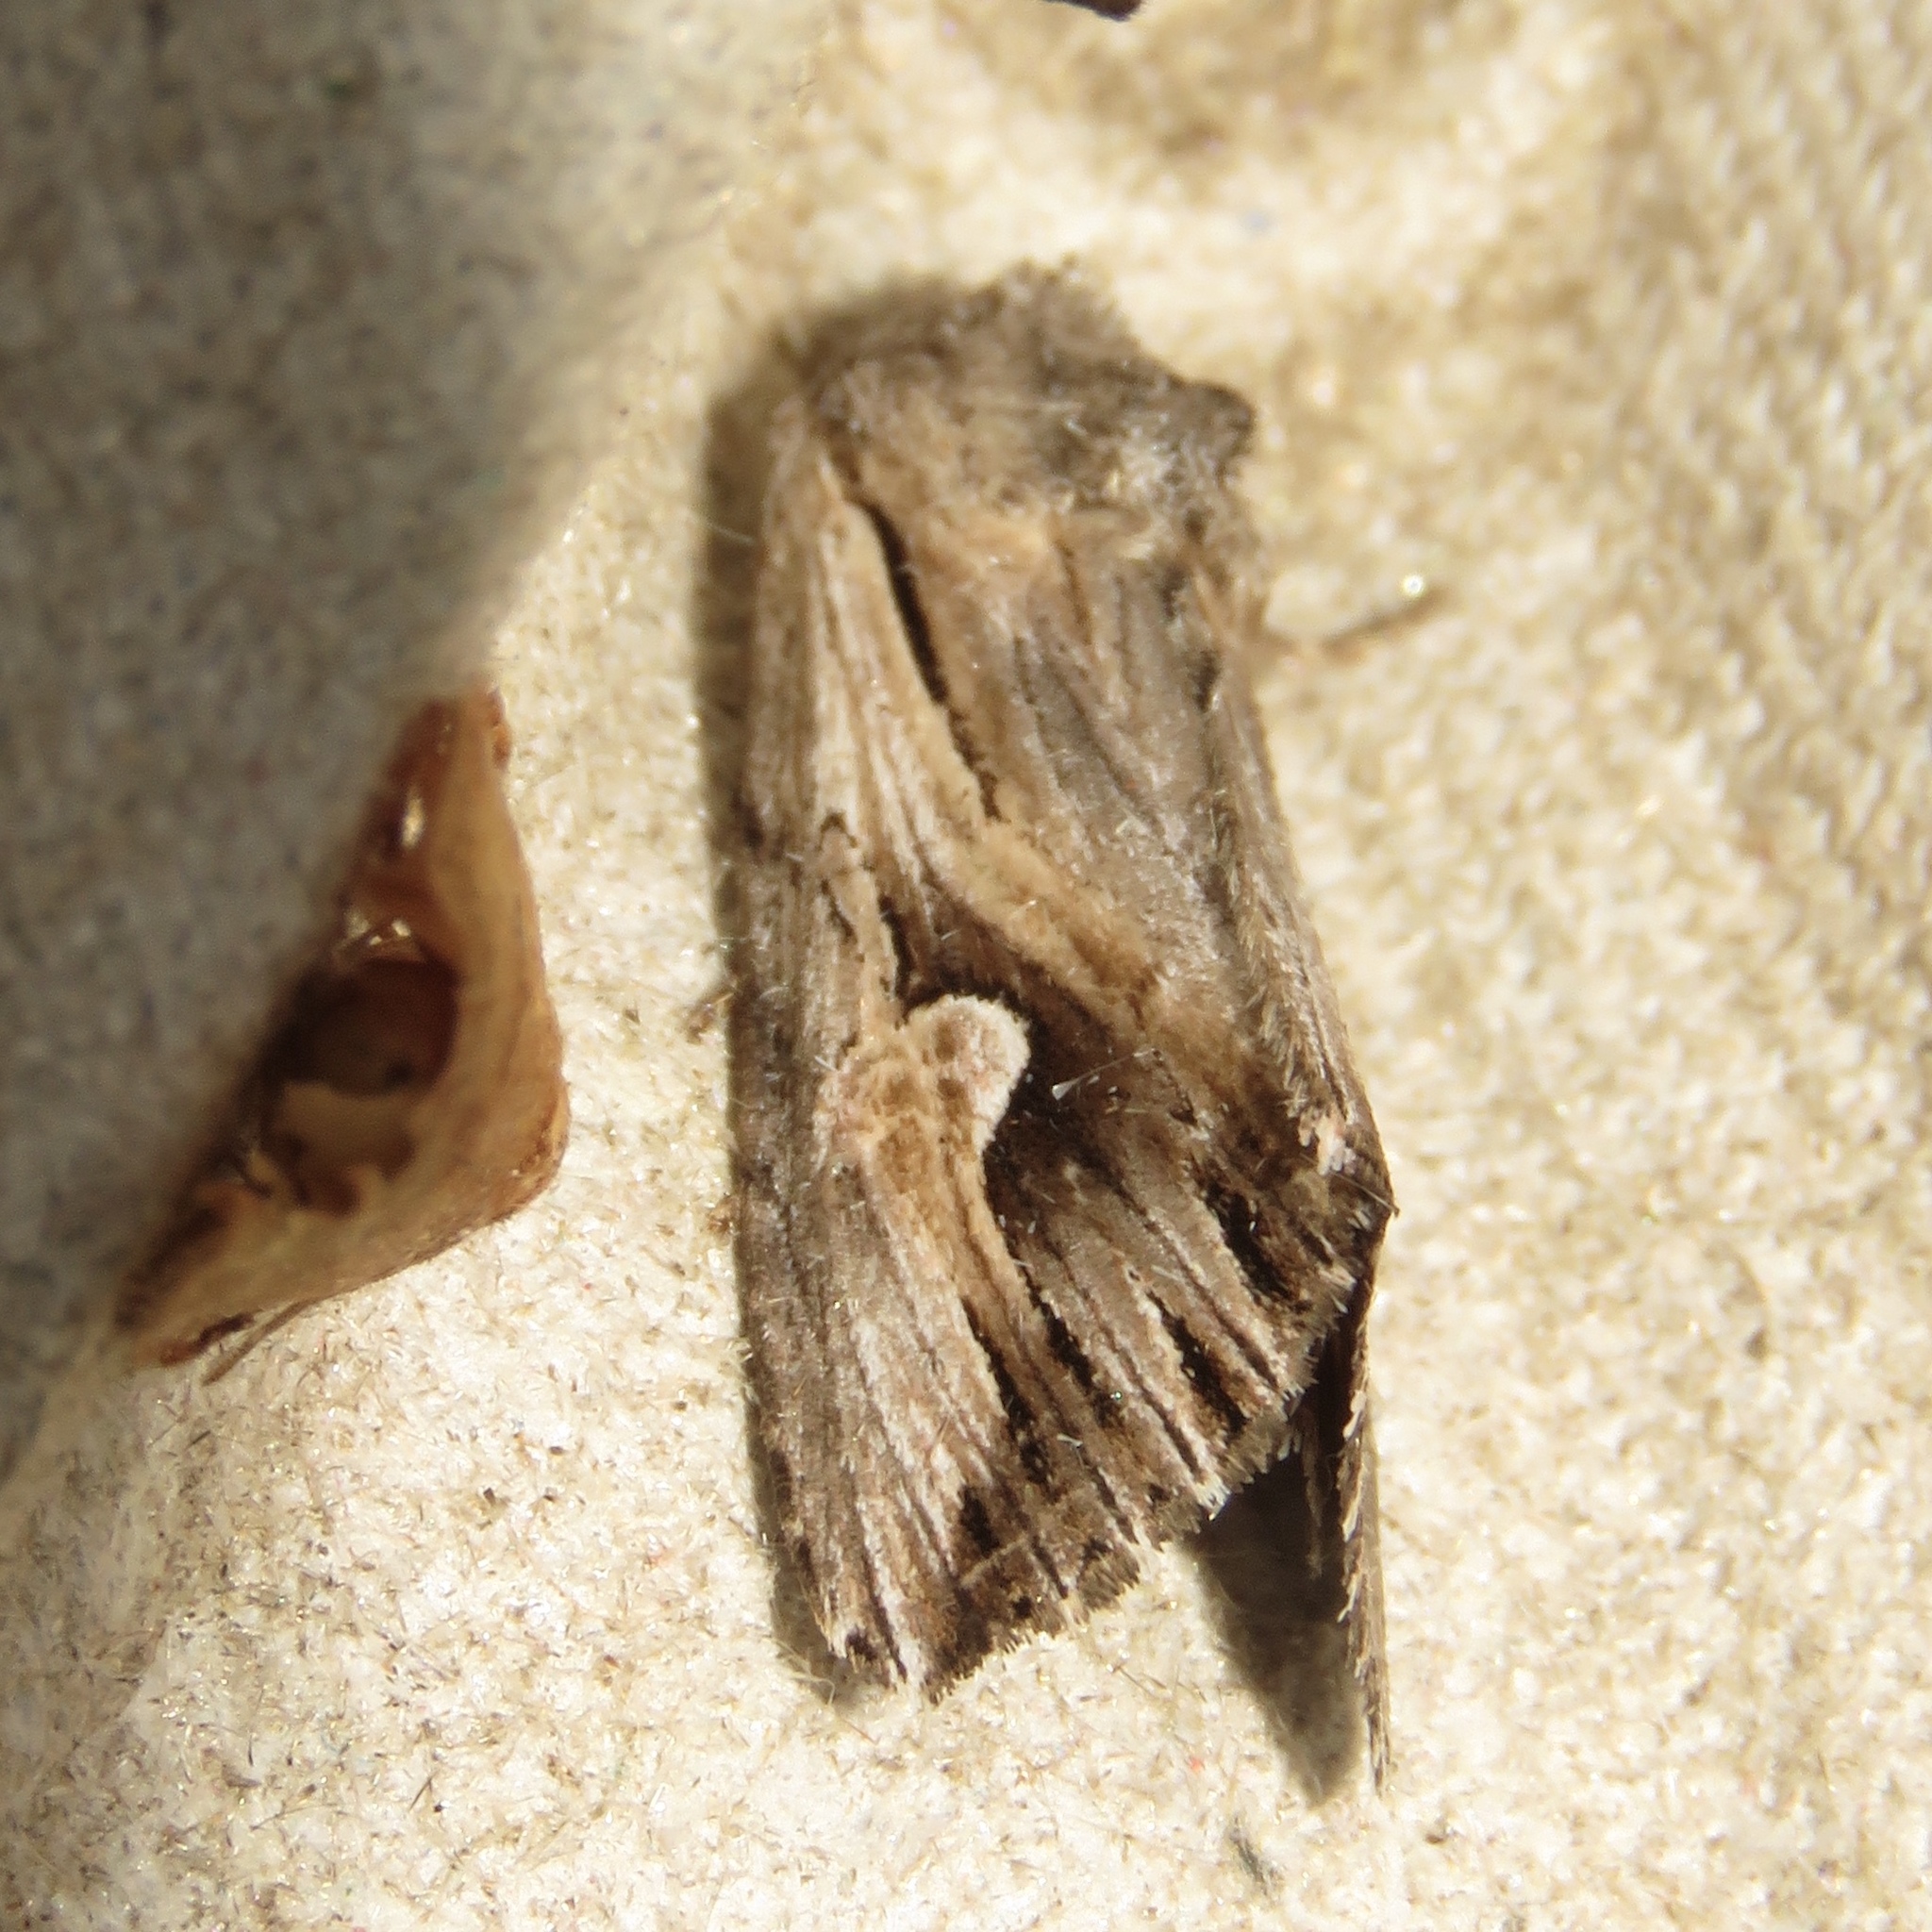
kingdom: Animalia
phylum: Arthropoda
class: Insecta
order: Lepidoptera
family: Noctuidae
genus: Nedra
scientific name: Nedra ramosula
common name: Gray half-spot
